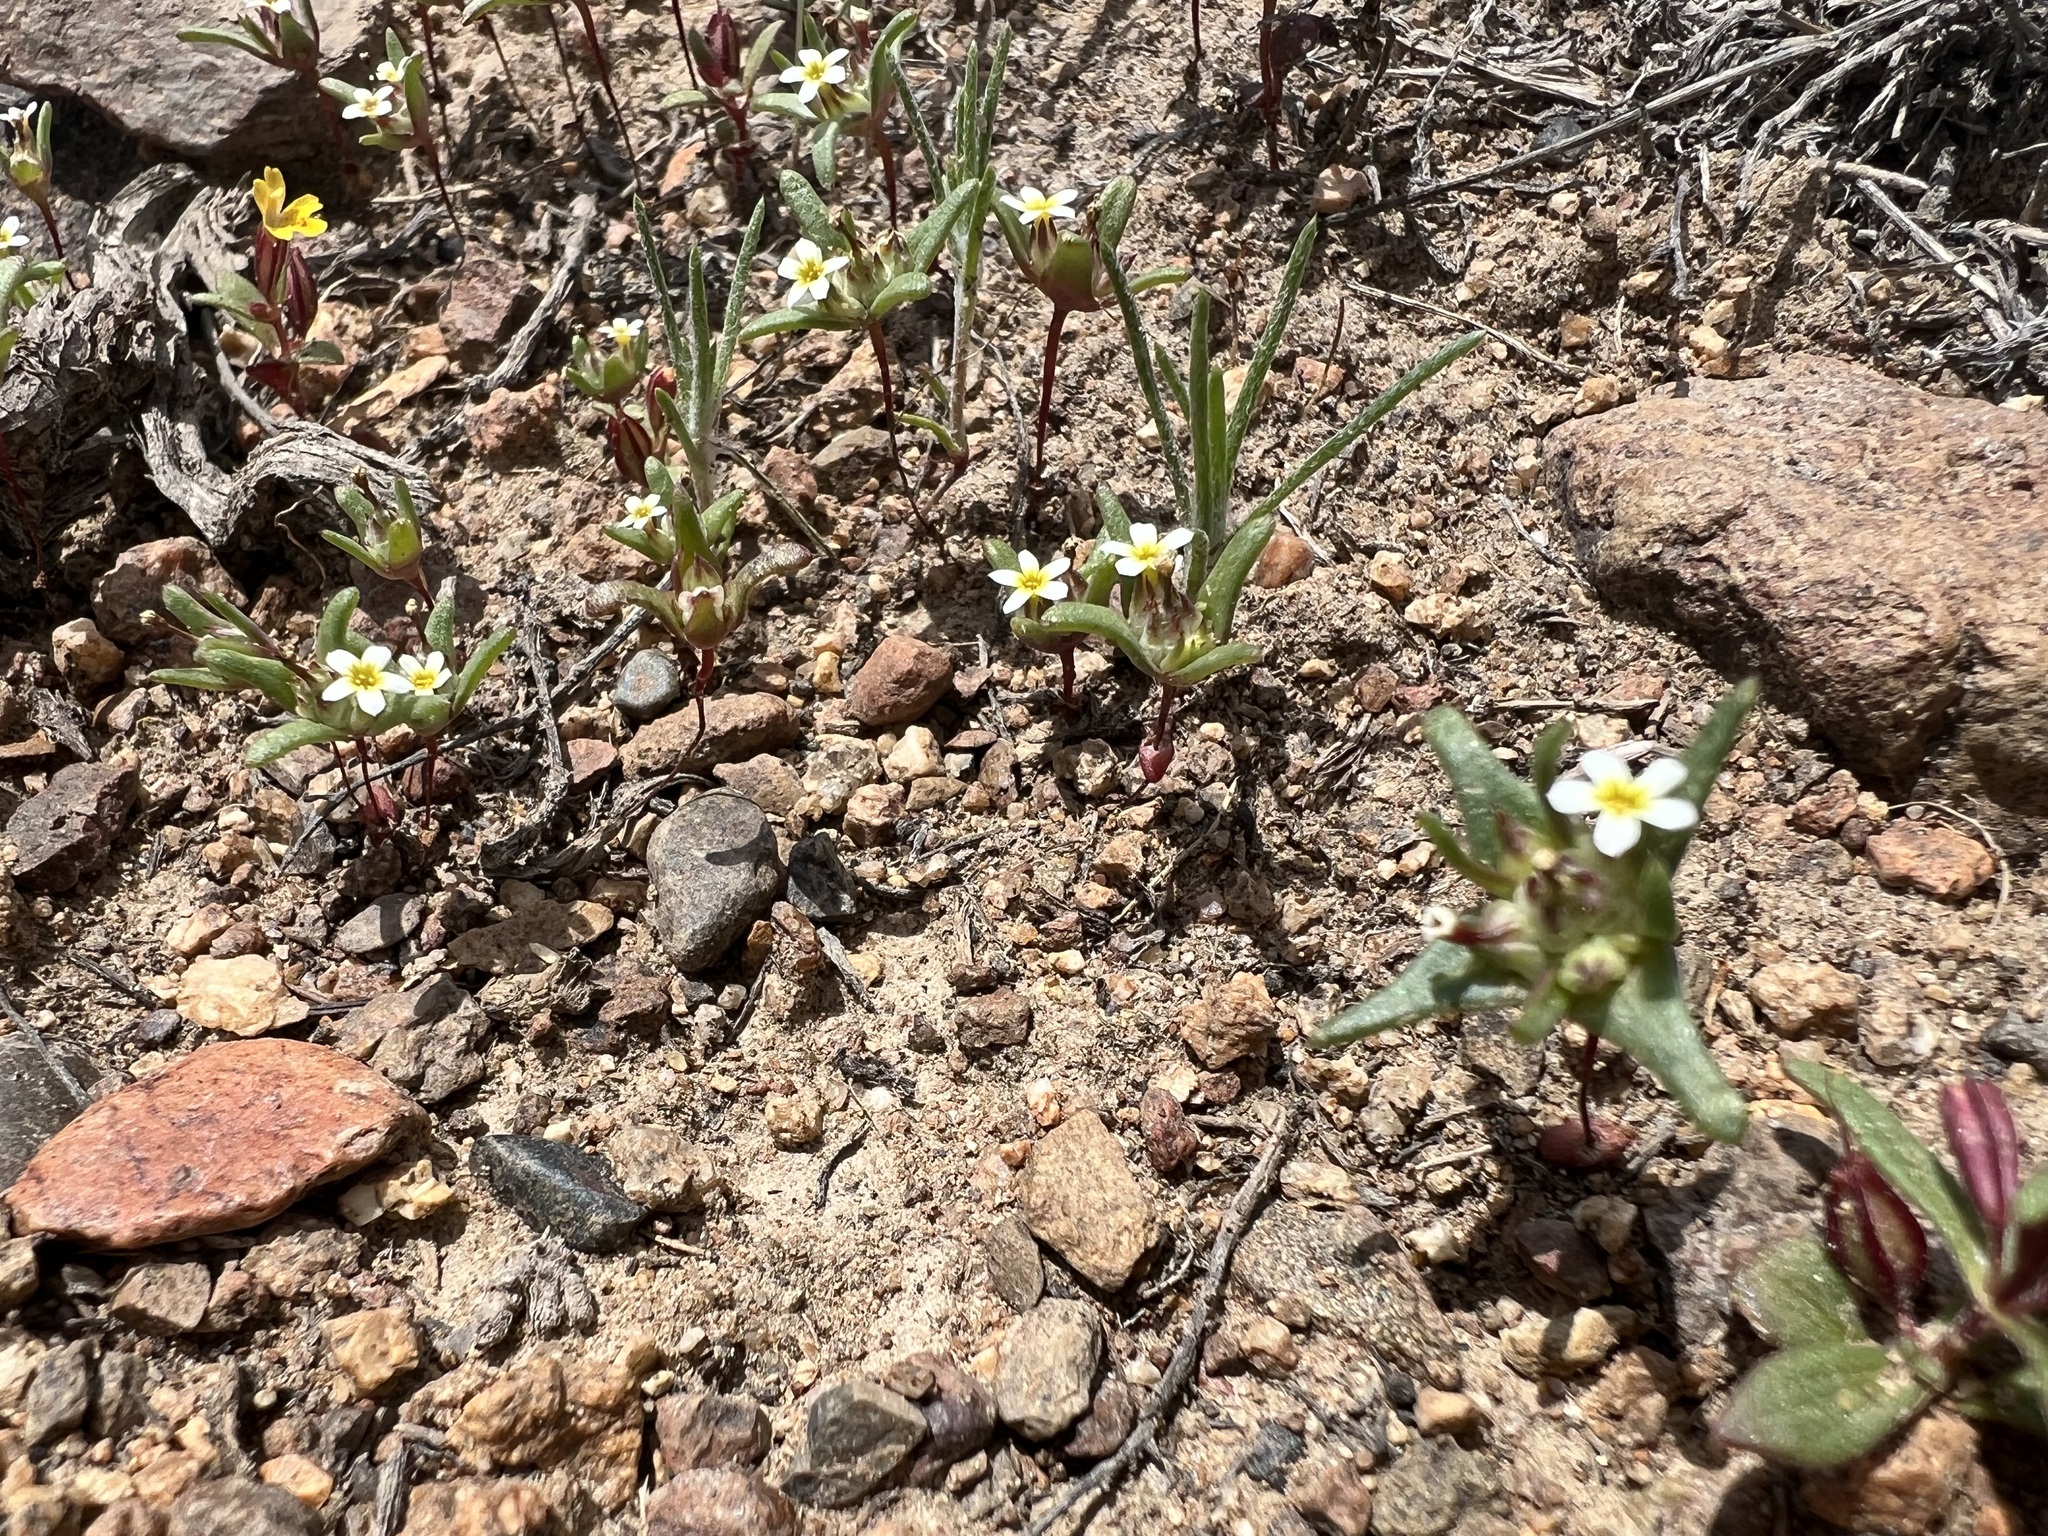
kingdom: Plantae
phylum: Tracheophyta
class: Magnoliopsida
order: Ericales
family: Polemoniaceae
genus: Gymnosteris
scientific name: Gymnosteris parvula
